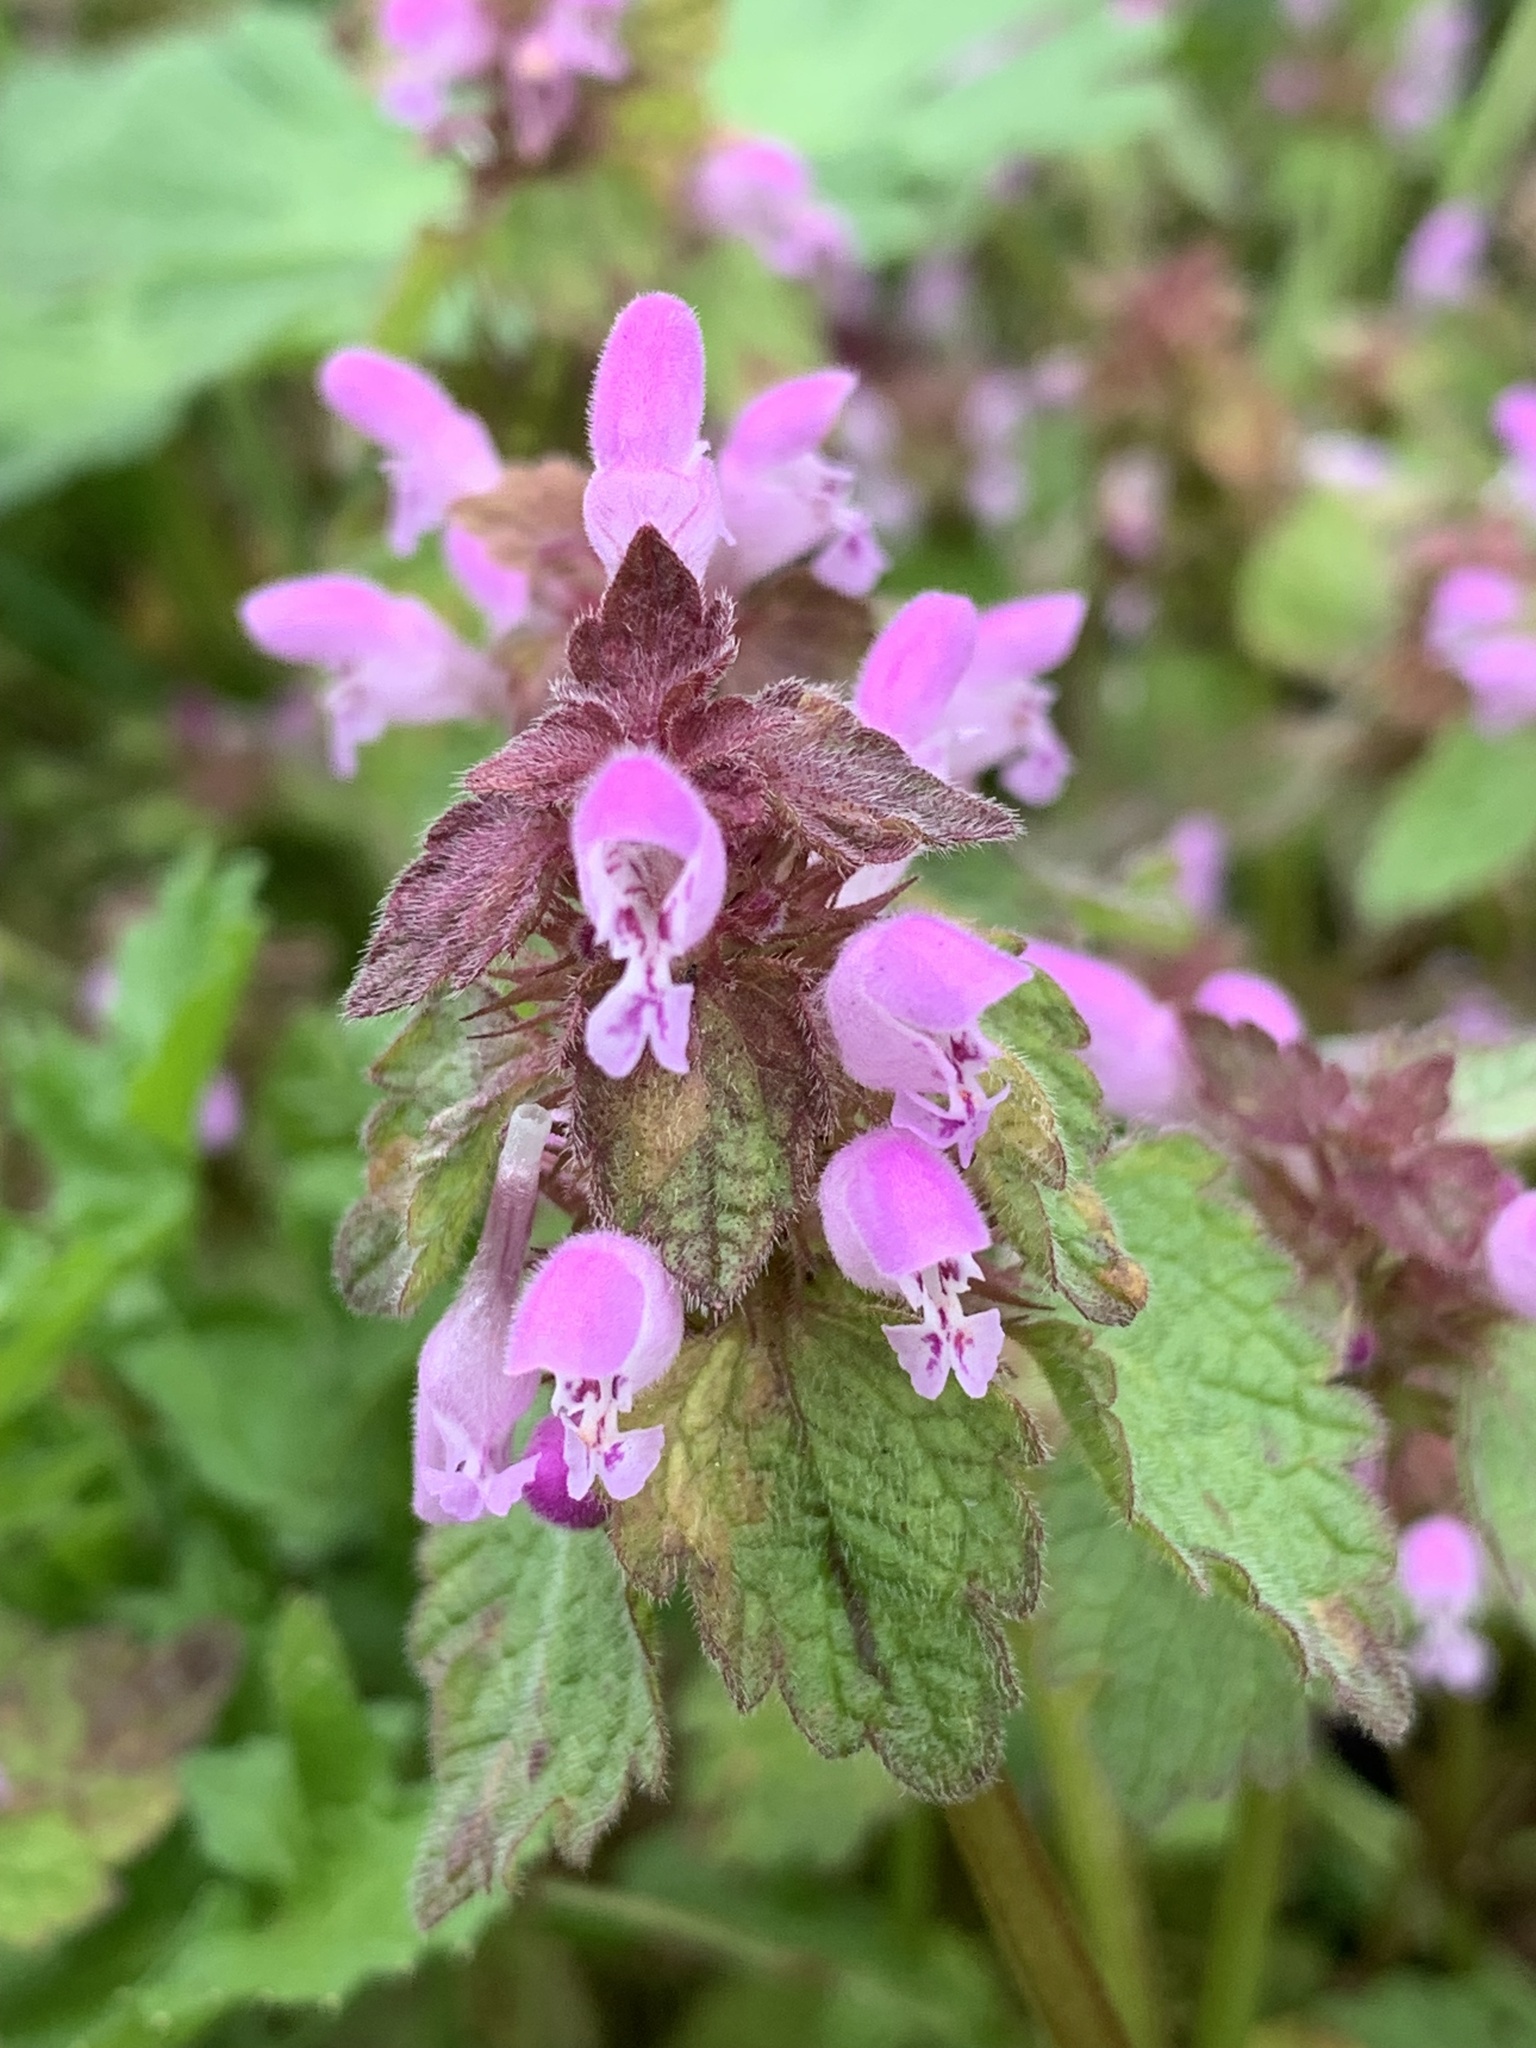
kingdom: Plantae
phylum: Tracheophyta
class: Magnoliopsida
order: Lamiales
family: Lamiaceae
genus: Lamium
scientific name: Lamium purpureum
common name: Red dead-nettle
